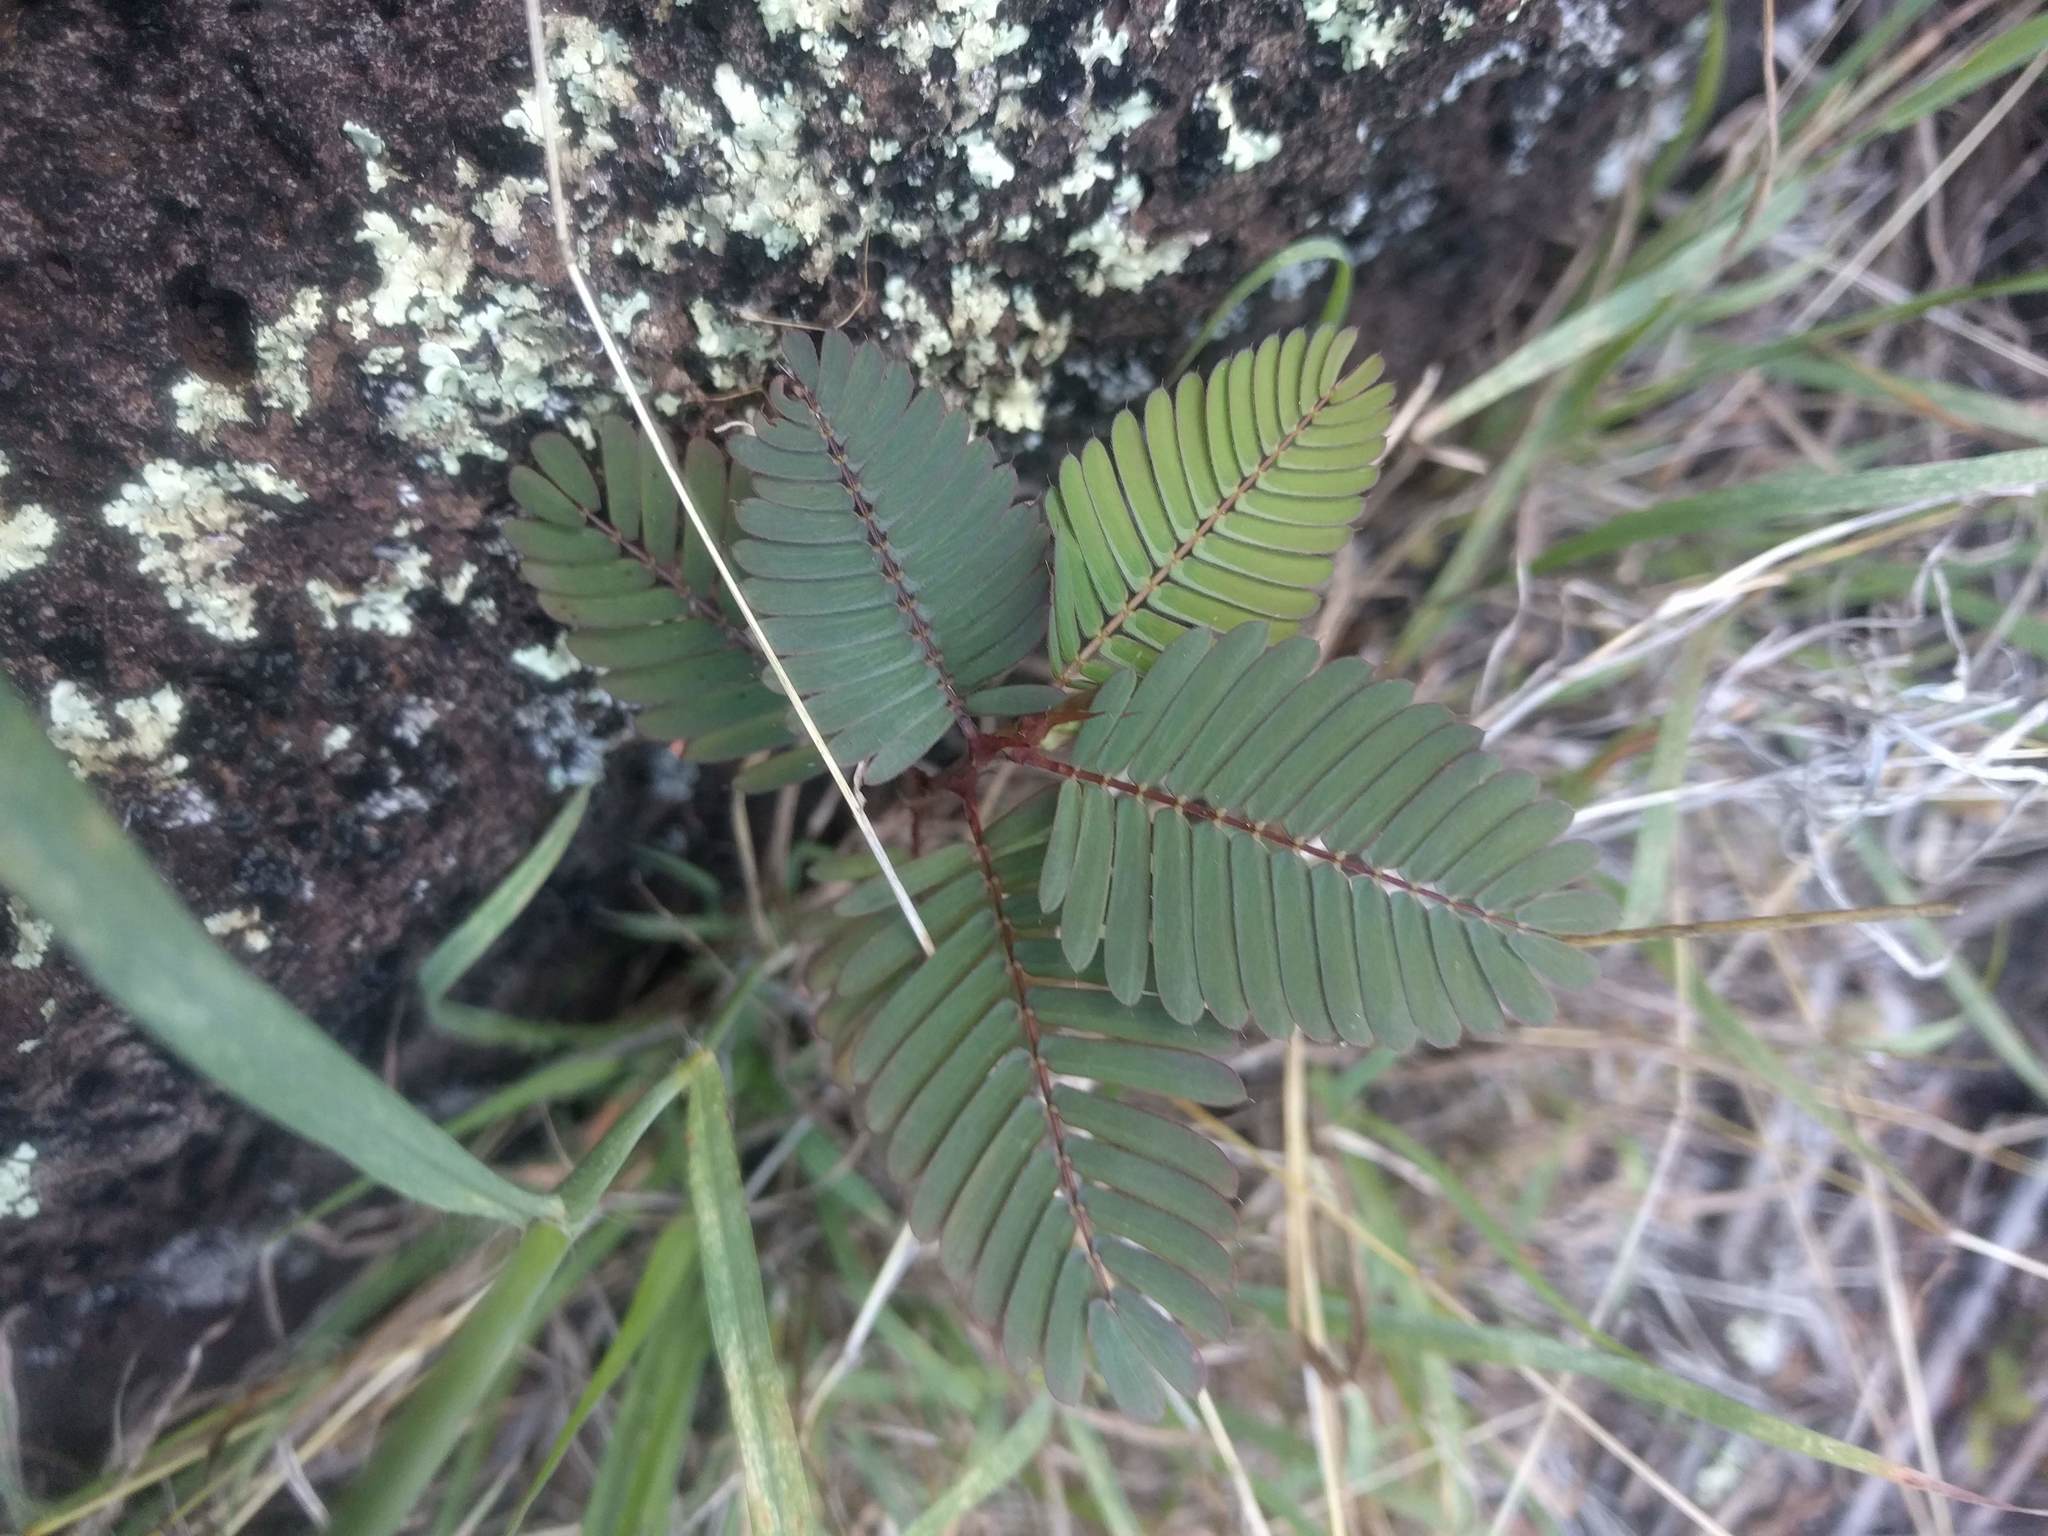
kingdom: Plantae
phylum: Tracheophyta
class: Magnoliopsida
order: Fabales
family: Fabaceae
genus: Chamaecrista
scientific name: Chamaecrista nictitans
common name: Sensitive cassia
